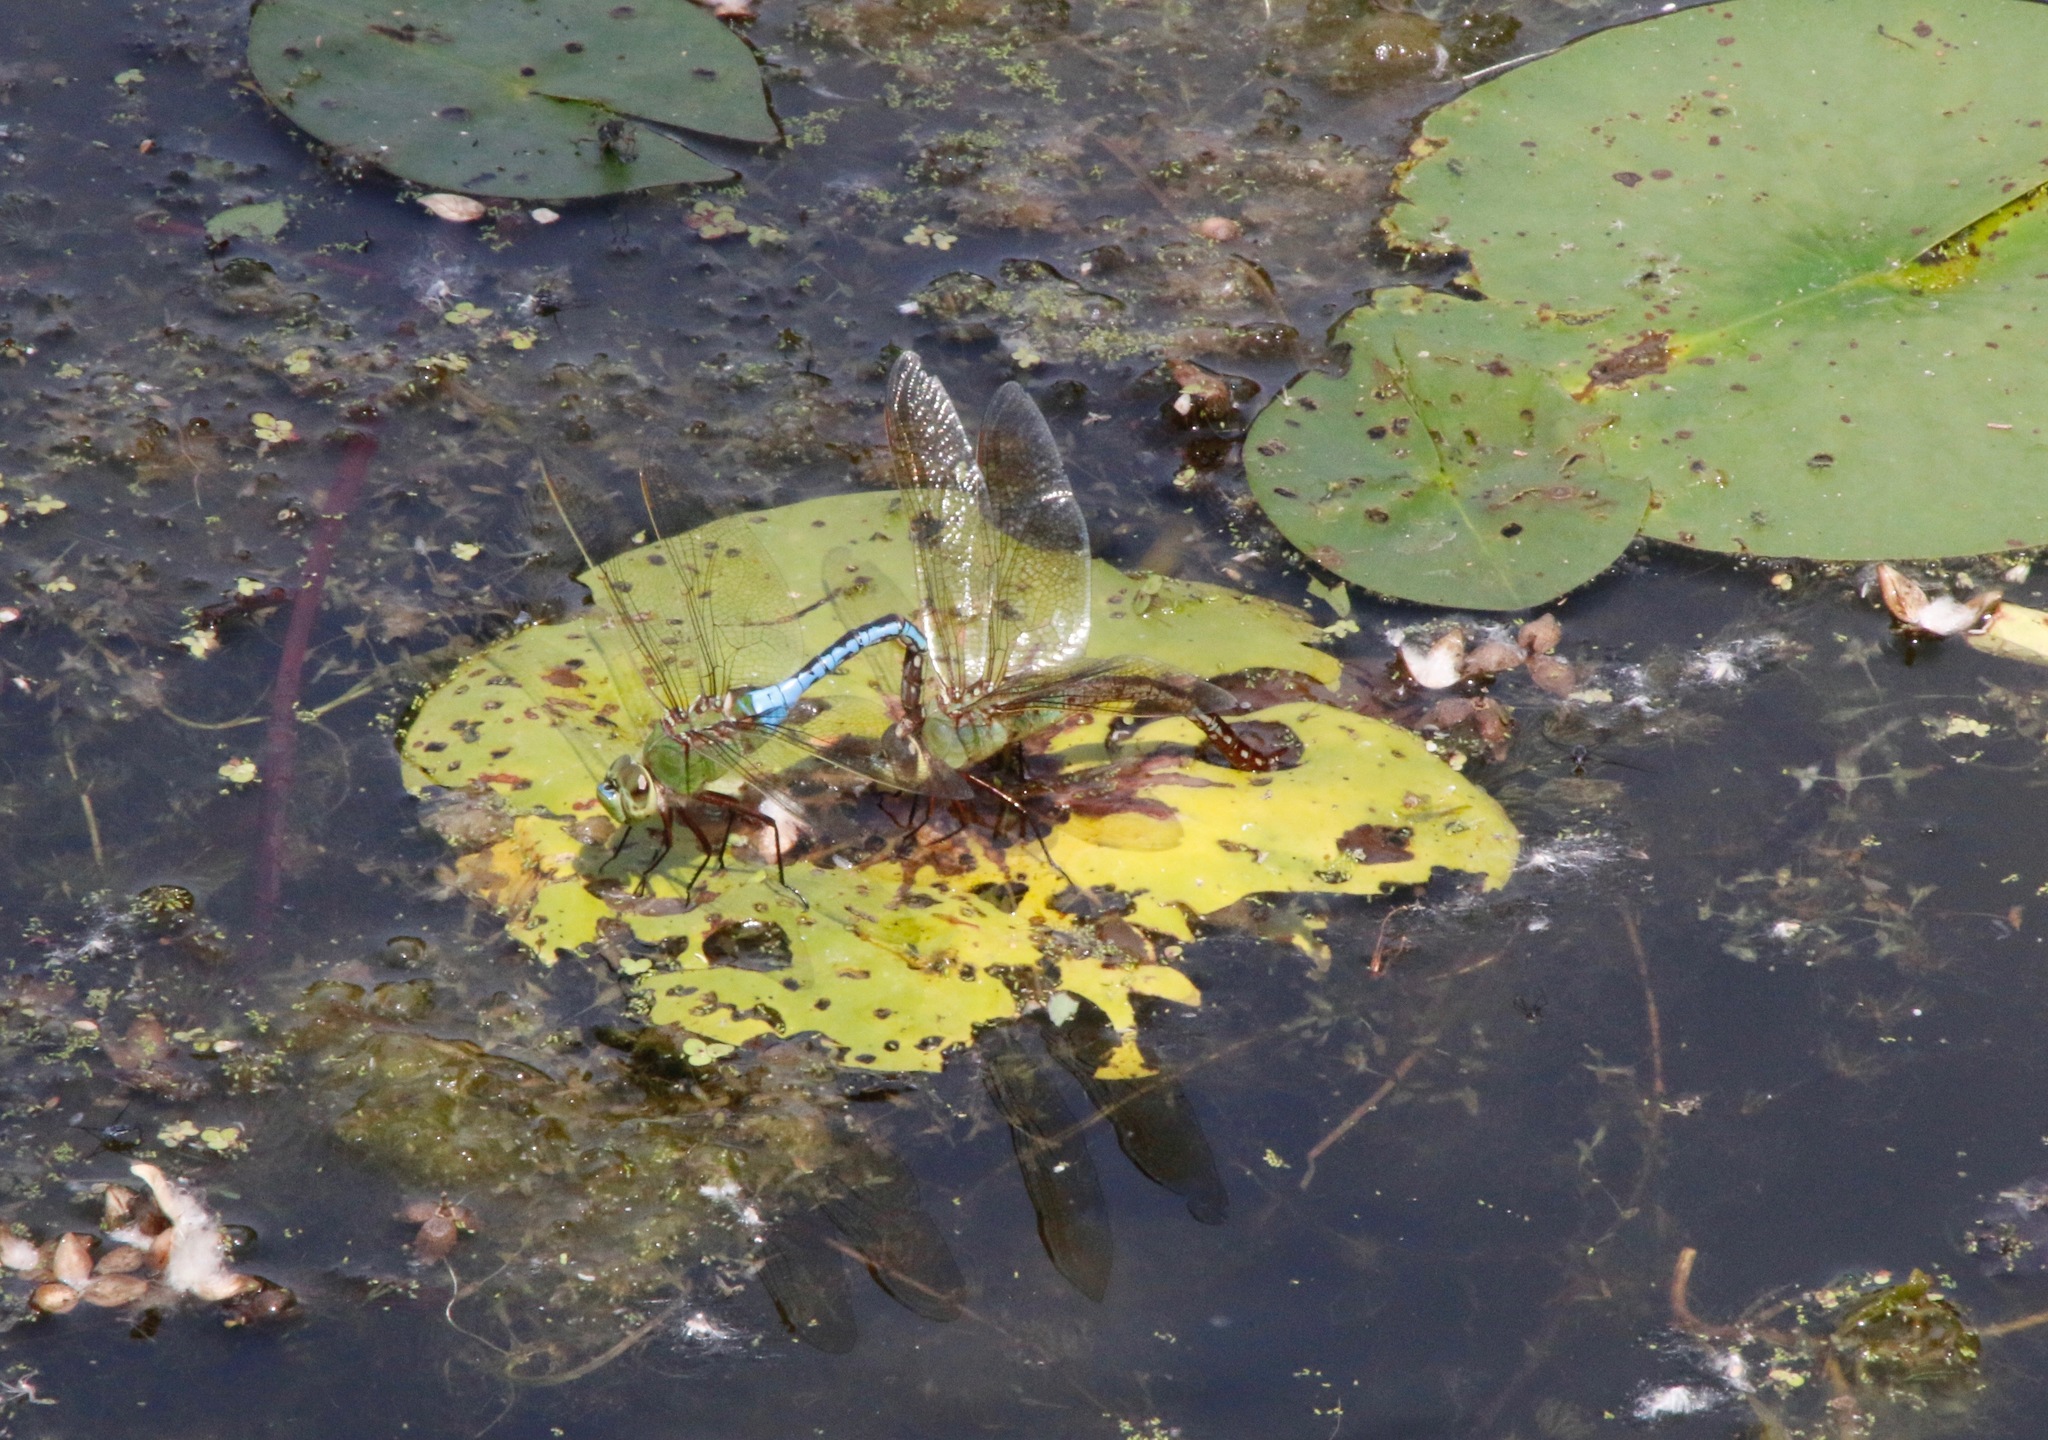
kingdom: Animalia
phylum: Arthropoda
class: Insecta
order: Odonata
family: Aeshnidae
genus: Anax
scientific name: Anax junius
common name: Common green darner
